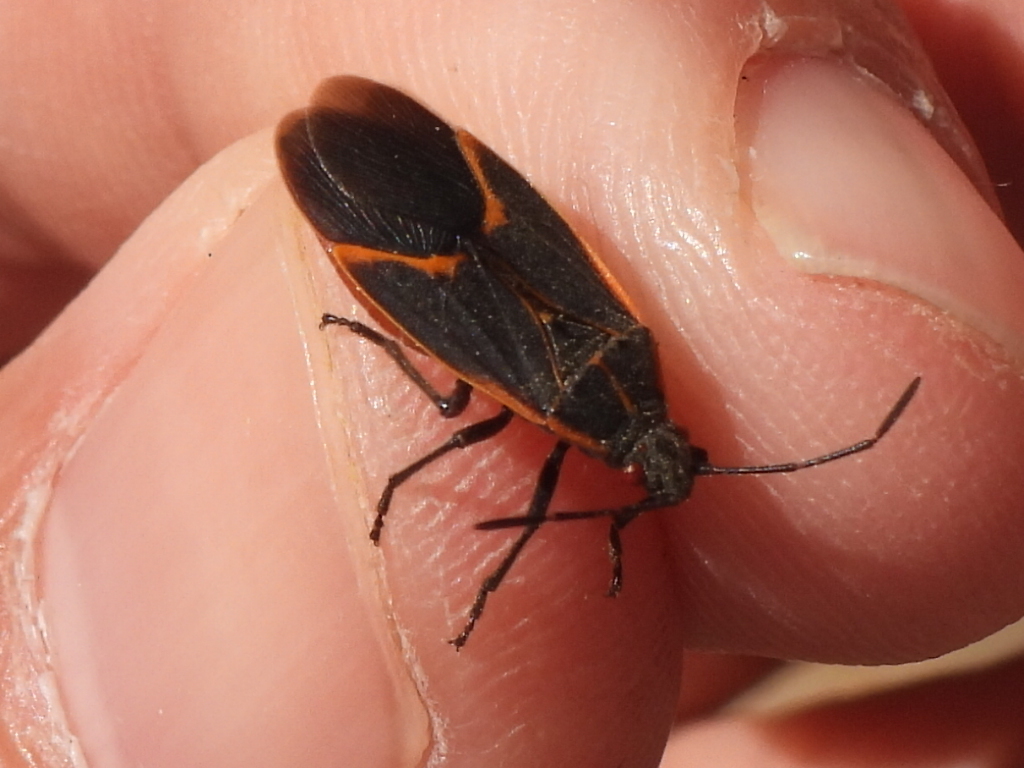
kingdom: Animalia
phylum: Arthropoda
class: Insecta
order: Hemiptera
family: Rhopalidae
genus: Boisea
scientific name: Boisea trivittata
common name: Boxelder bug
